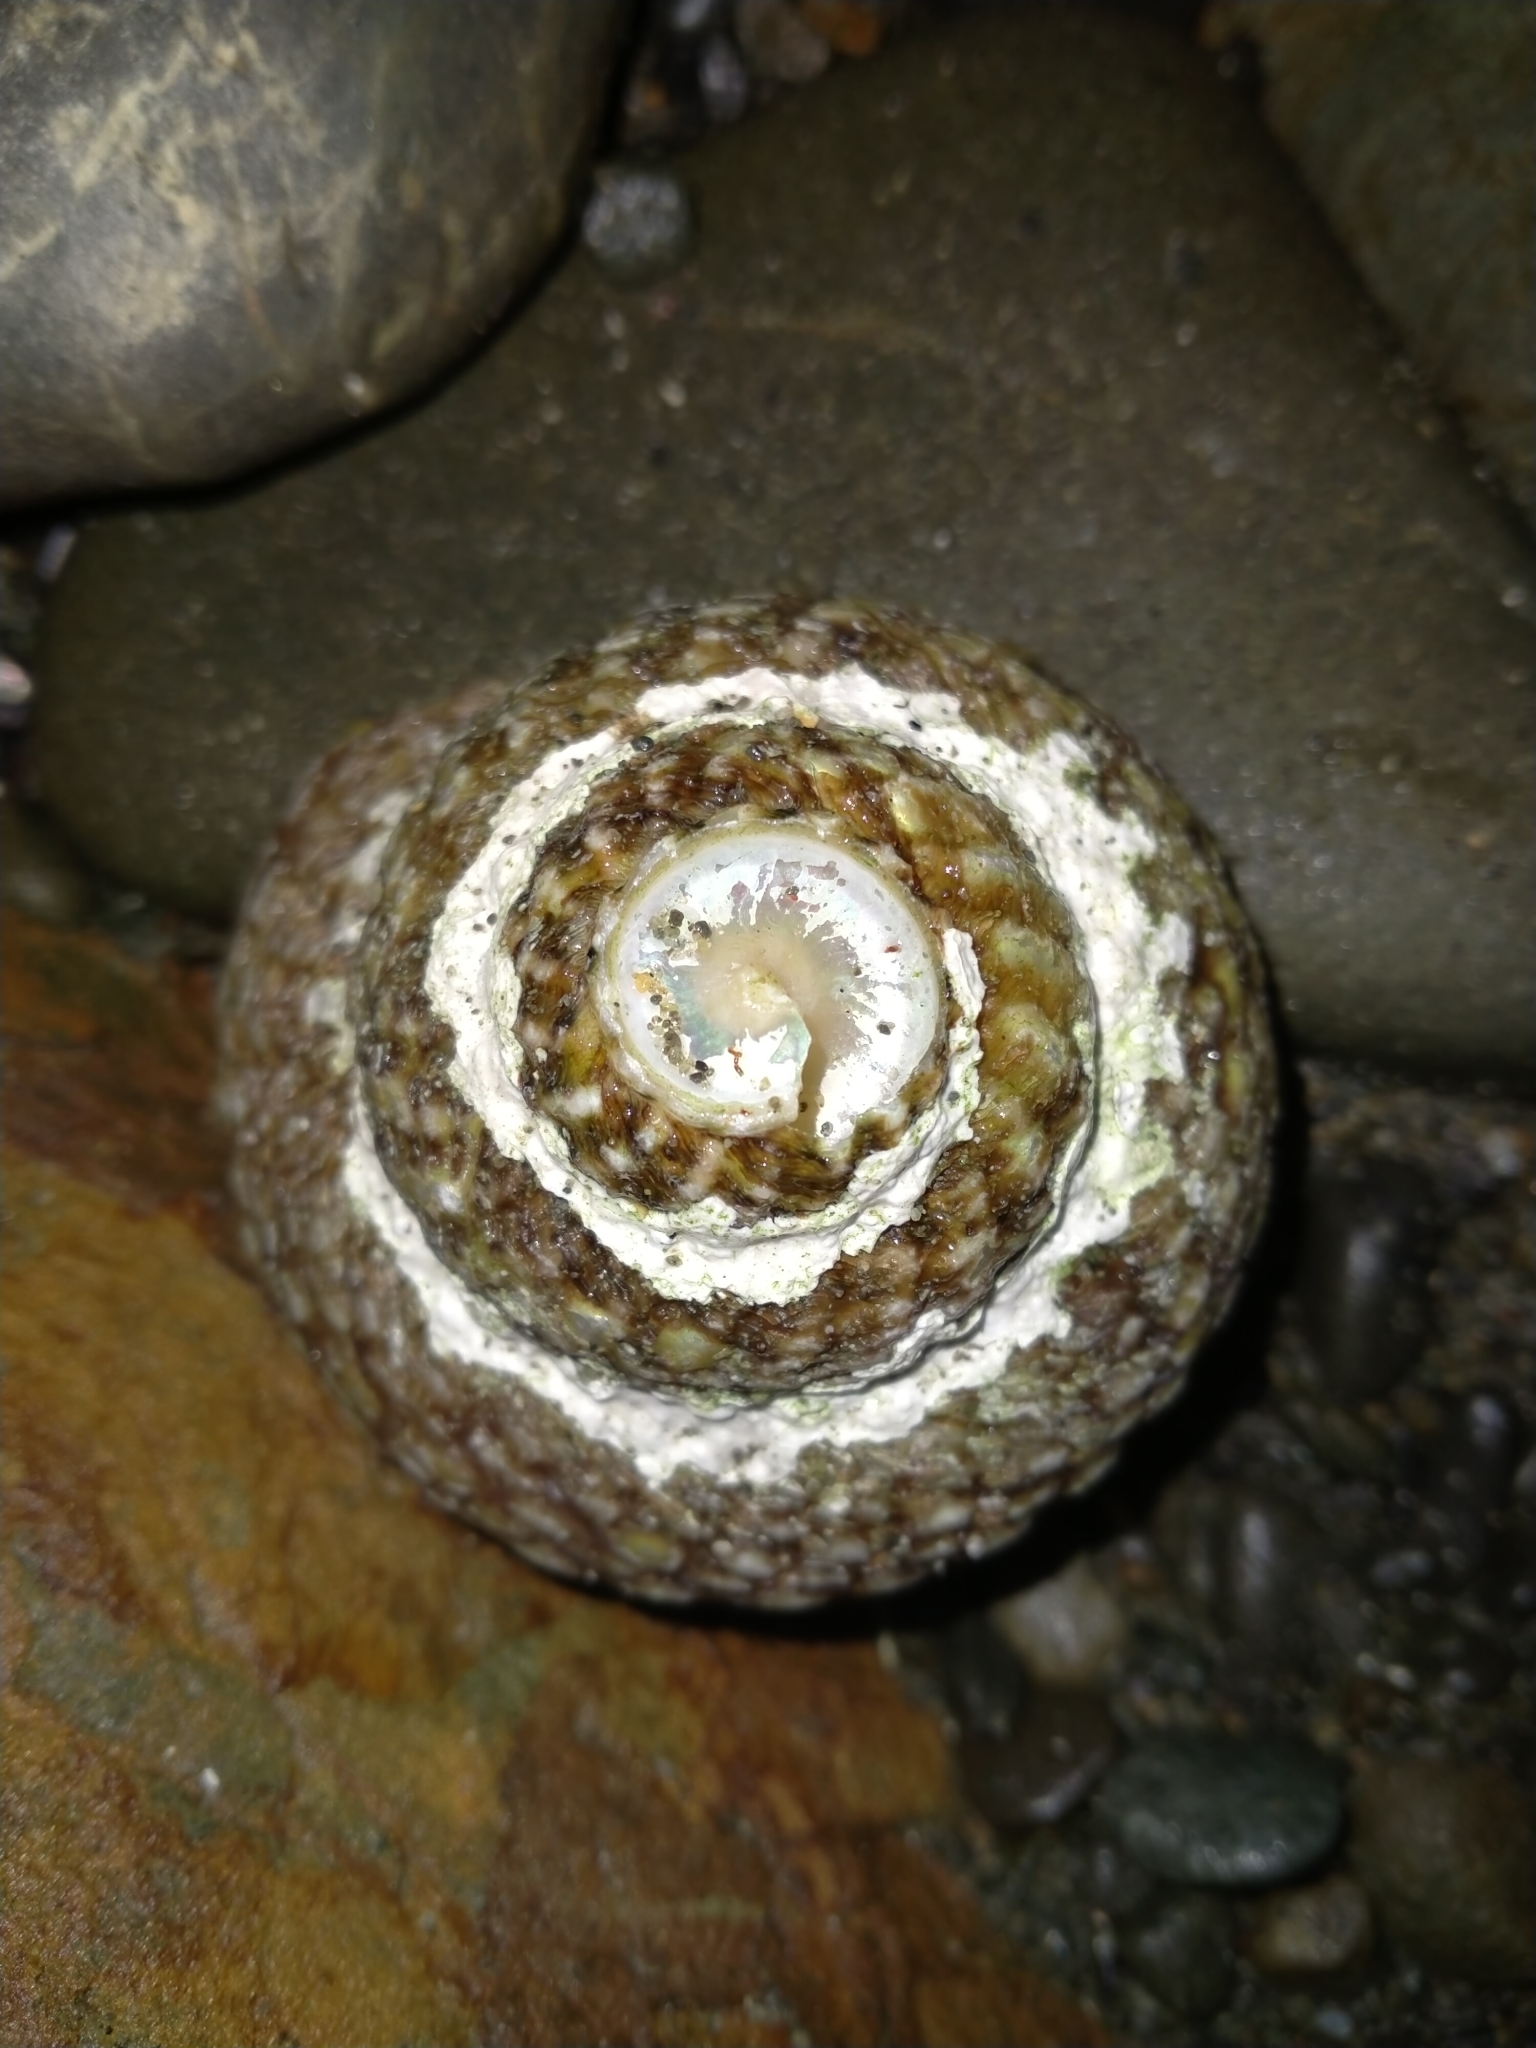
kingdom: Animalia
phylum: Mollusca
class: Gastropoda
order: Trochida
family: Turbinidae
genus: Cookia
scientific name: Cookia sulcata
